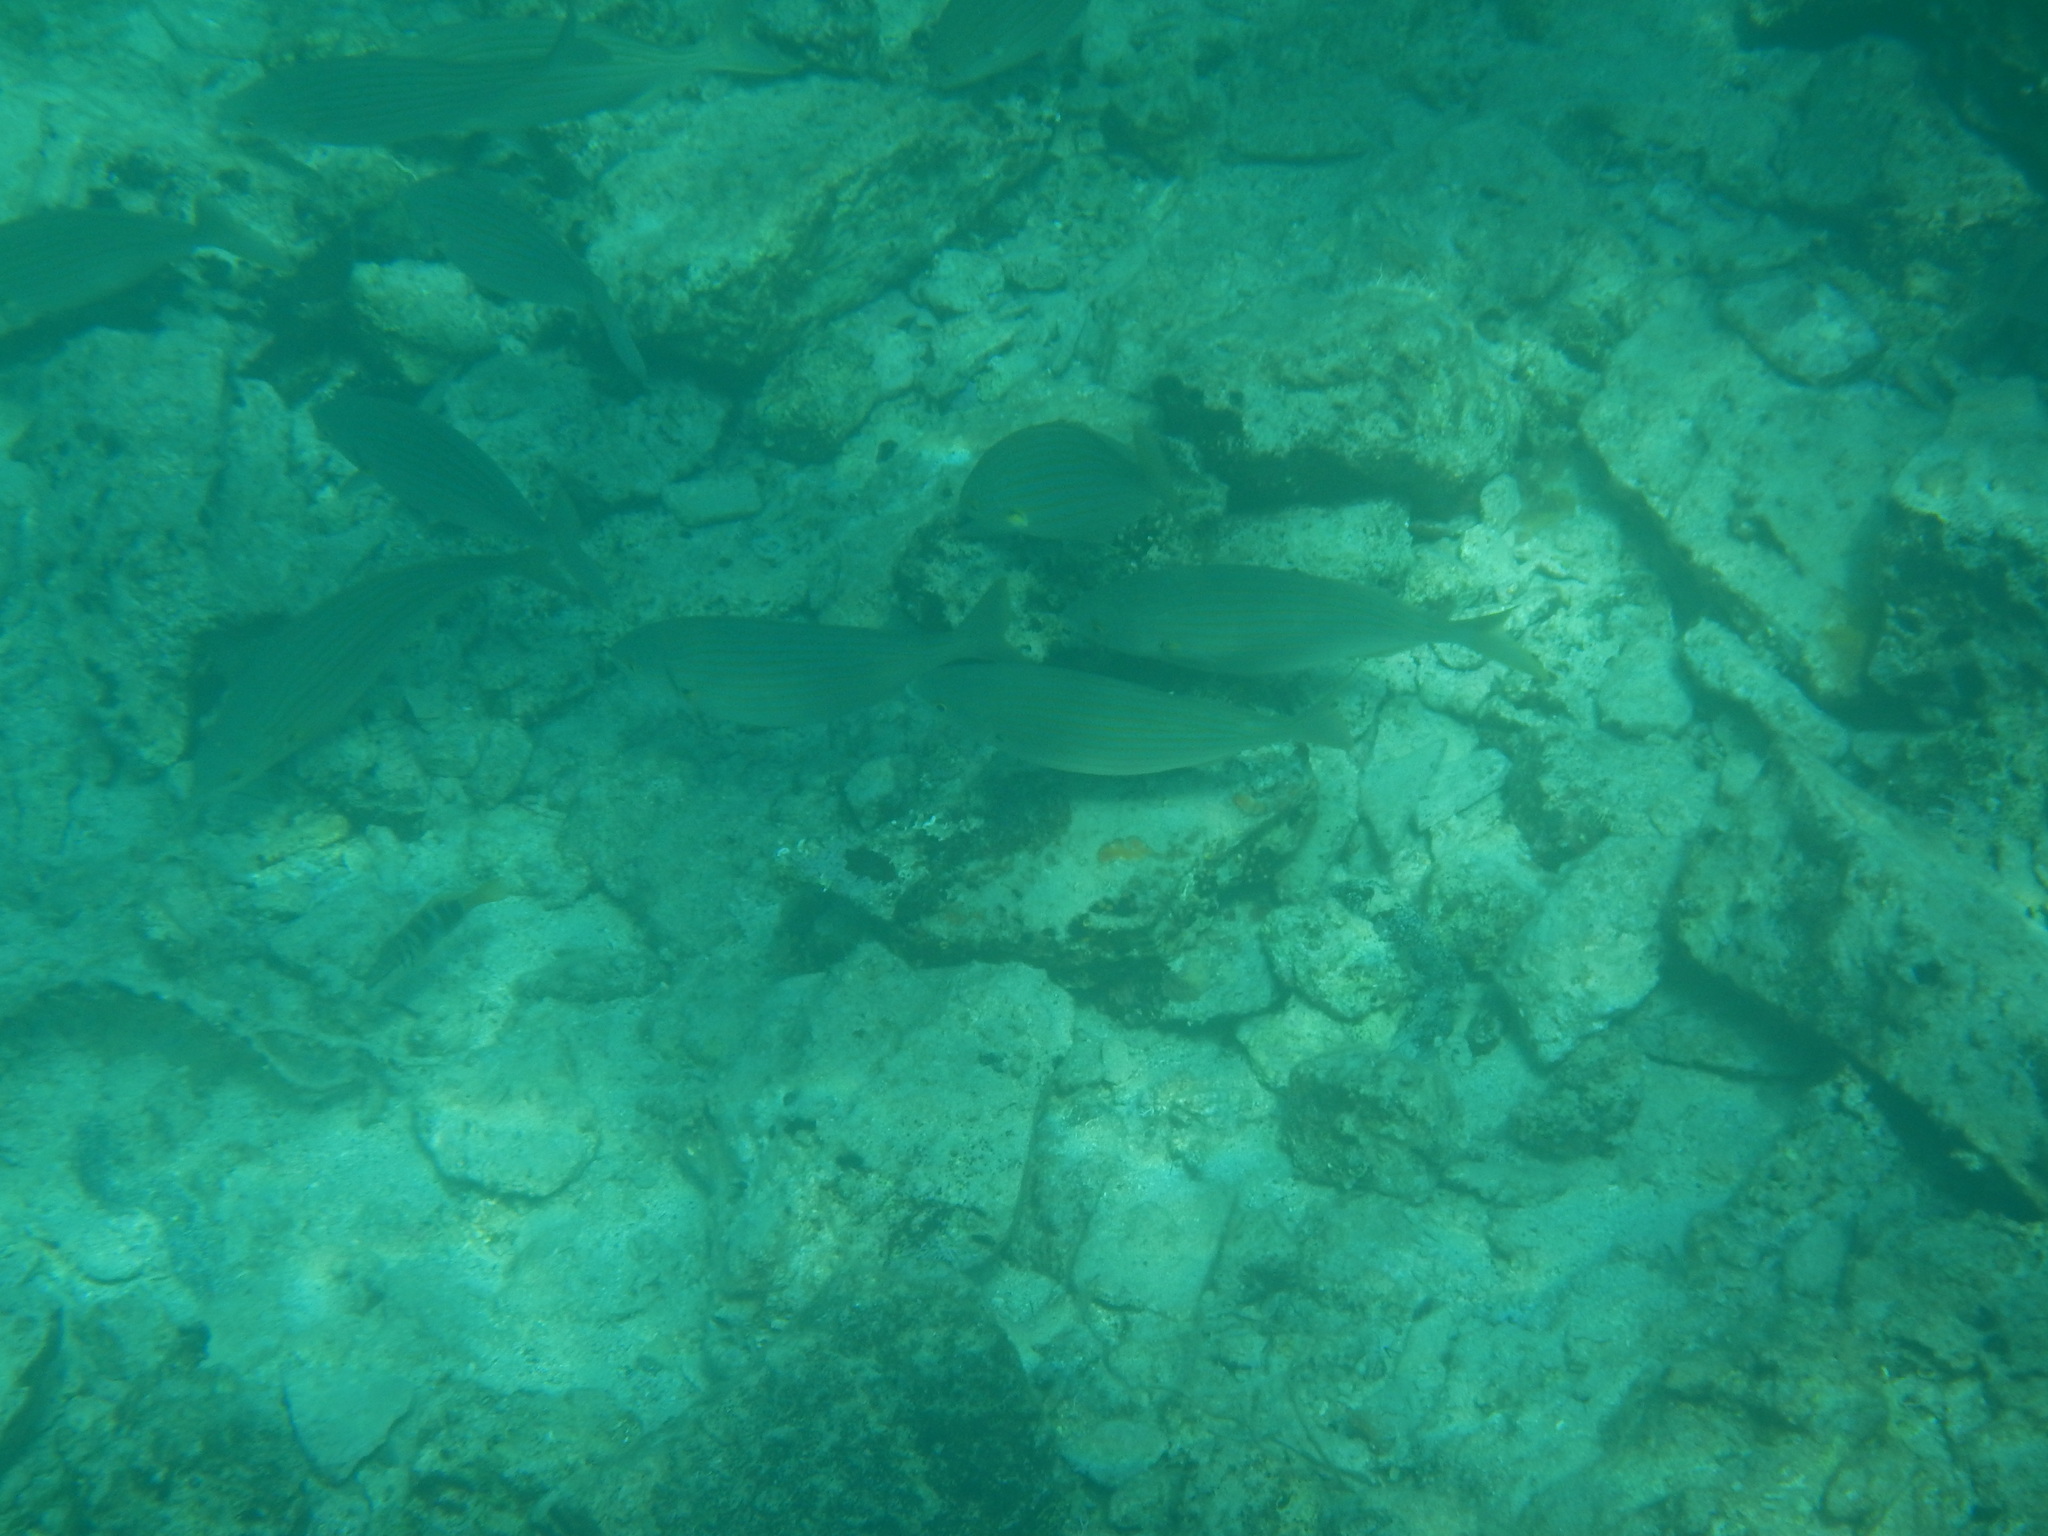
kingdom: Animalia
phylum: Chordata
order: Perciformes
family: Sparidae
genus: Sarpa
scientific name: Sarpa salpa
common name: Salema
